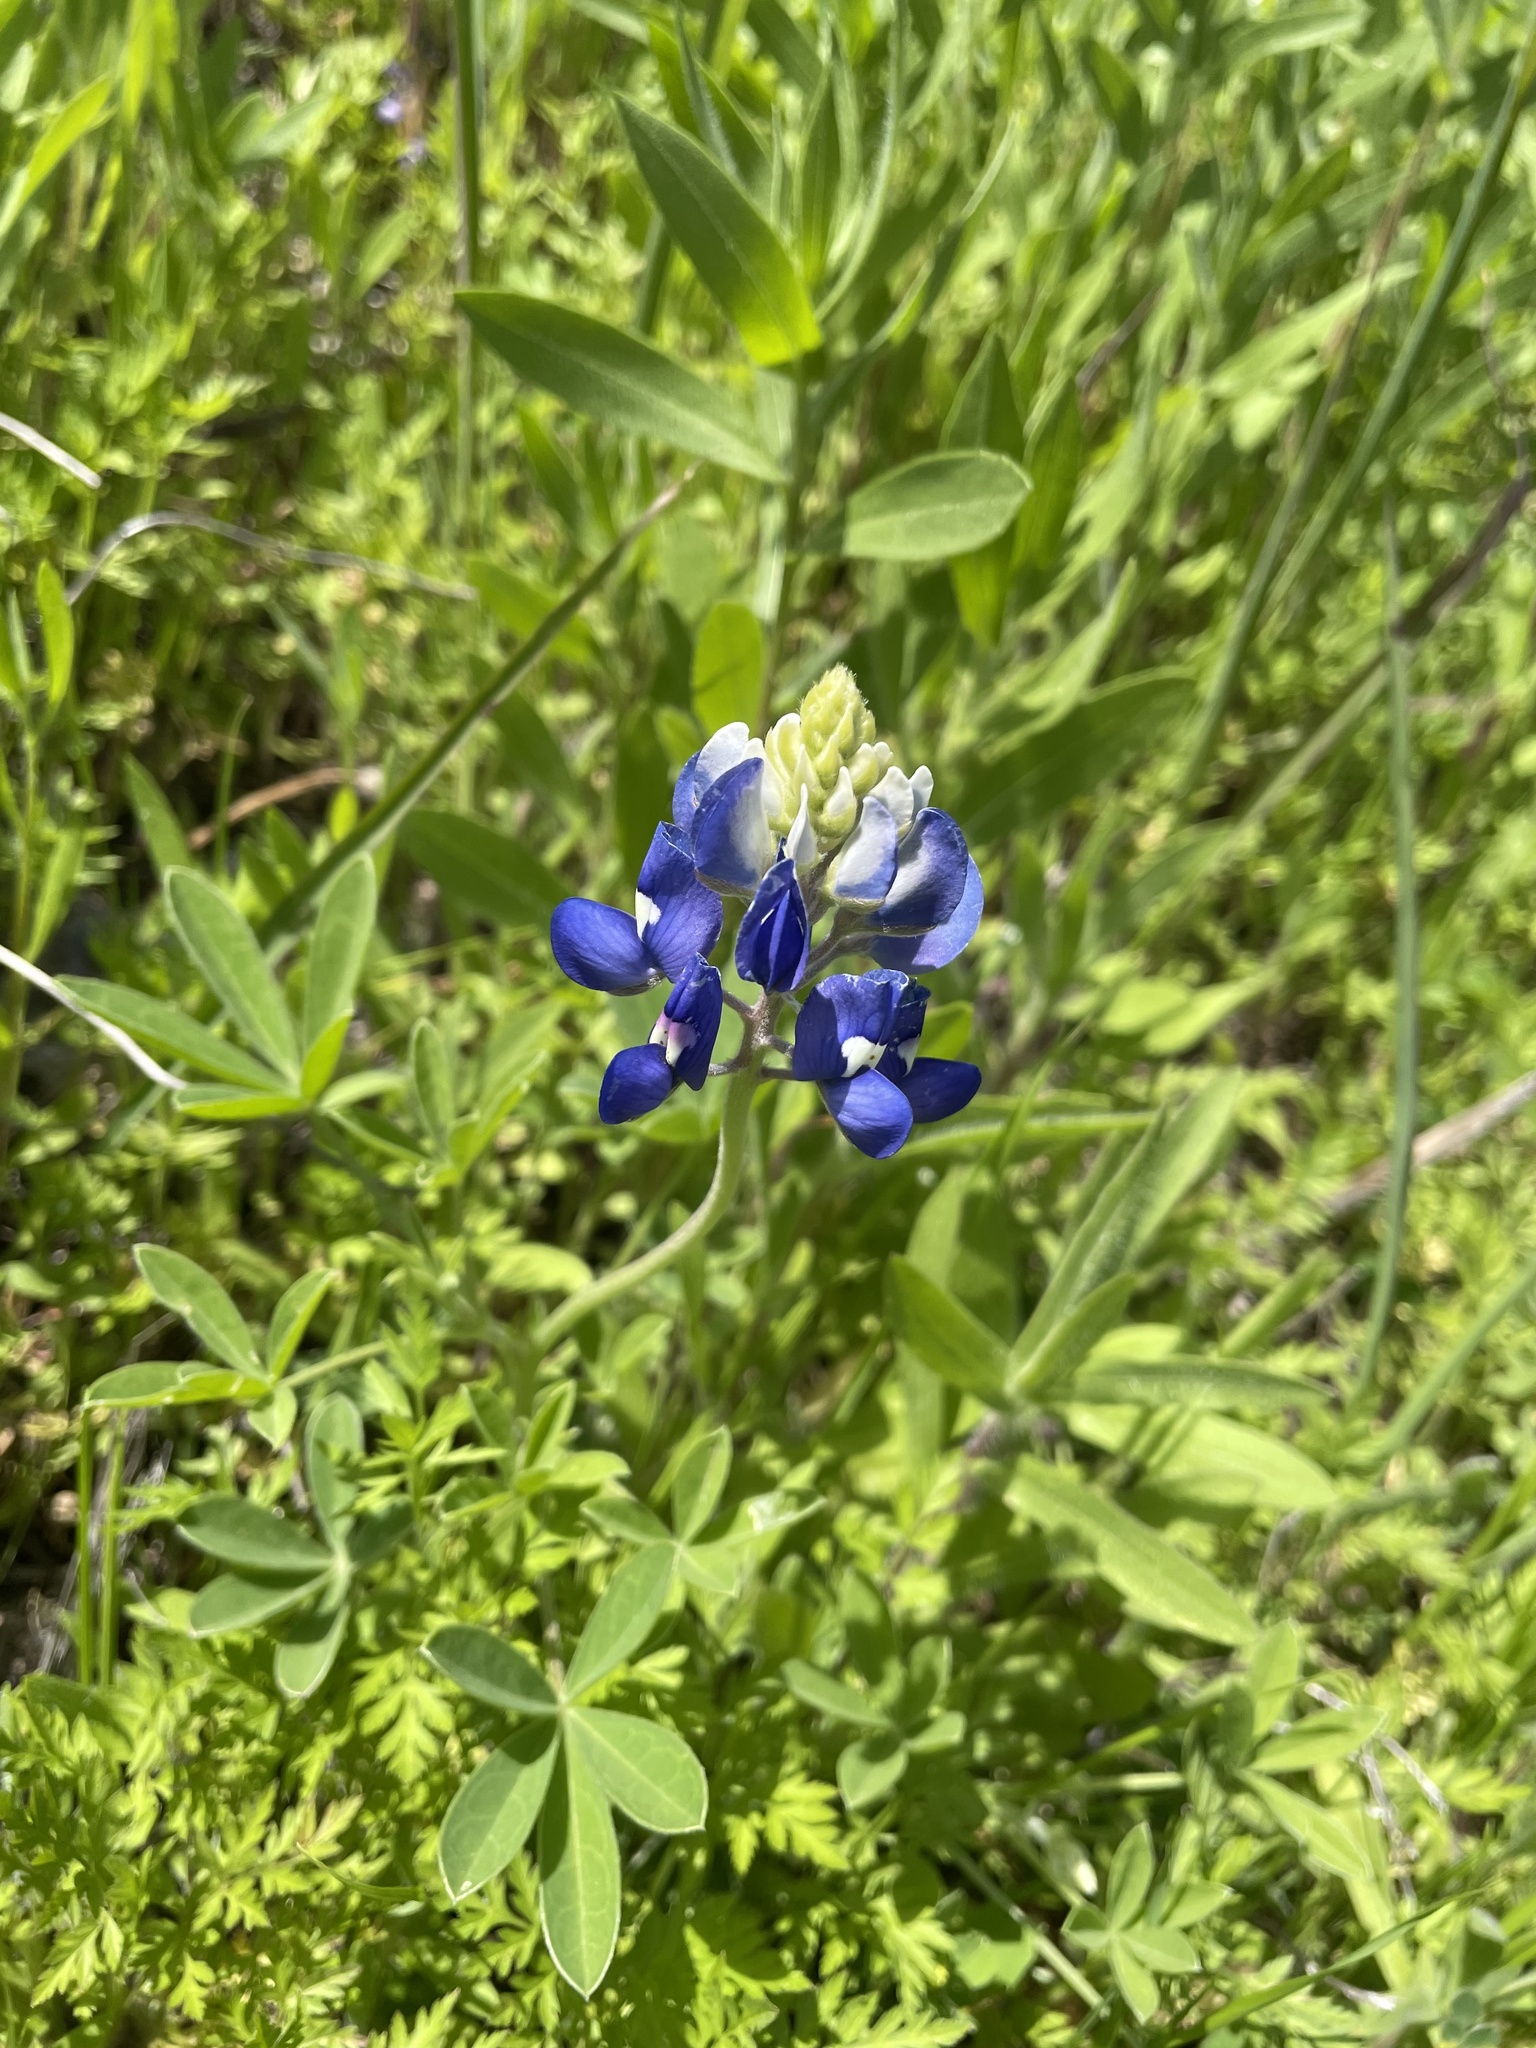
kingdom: Plantae
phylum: Tracheophyta
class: Magnoliopsida
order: Fabales
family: Fabaceae
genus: Lupinus
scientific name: Lupinus texensis
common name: Texas bluebonnet
